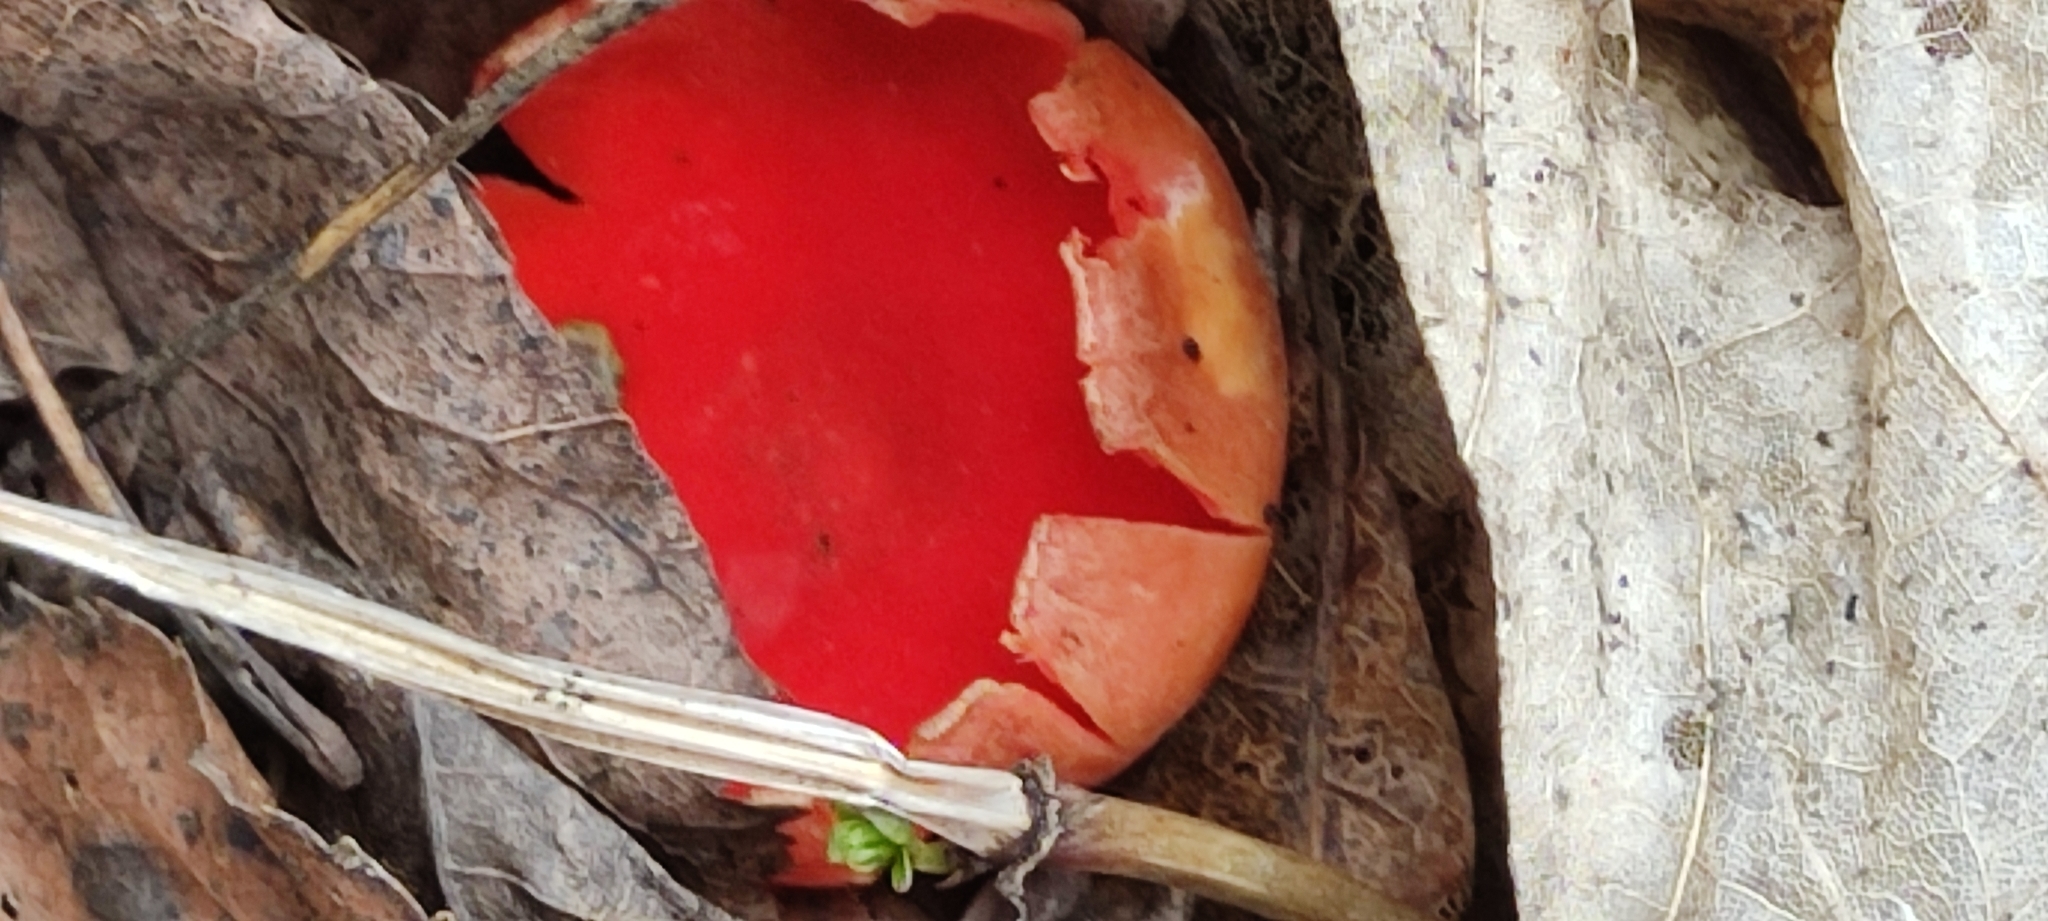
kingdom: Fungi
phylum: Ascomycota
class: Pezizomycetes
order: Pezizales
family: Sarcoscyphaceae
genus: Sarcoscypha
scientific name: Sarcoscypha
